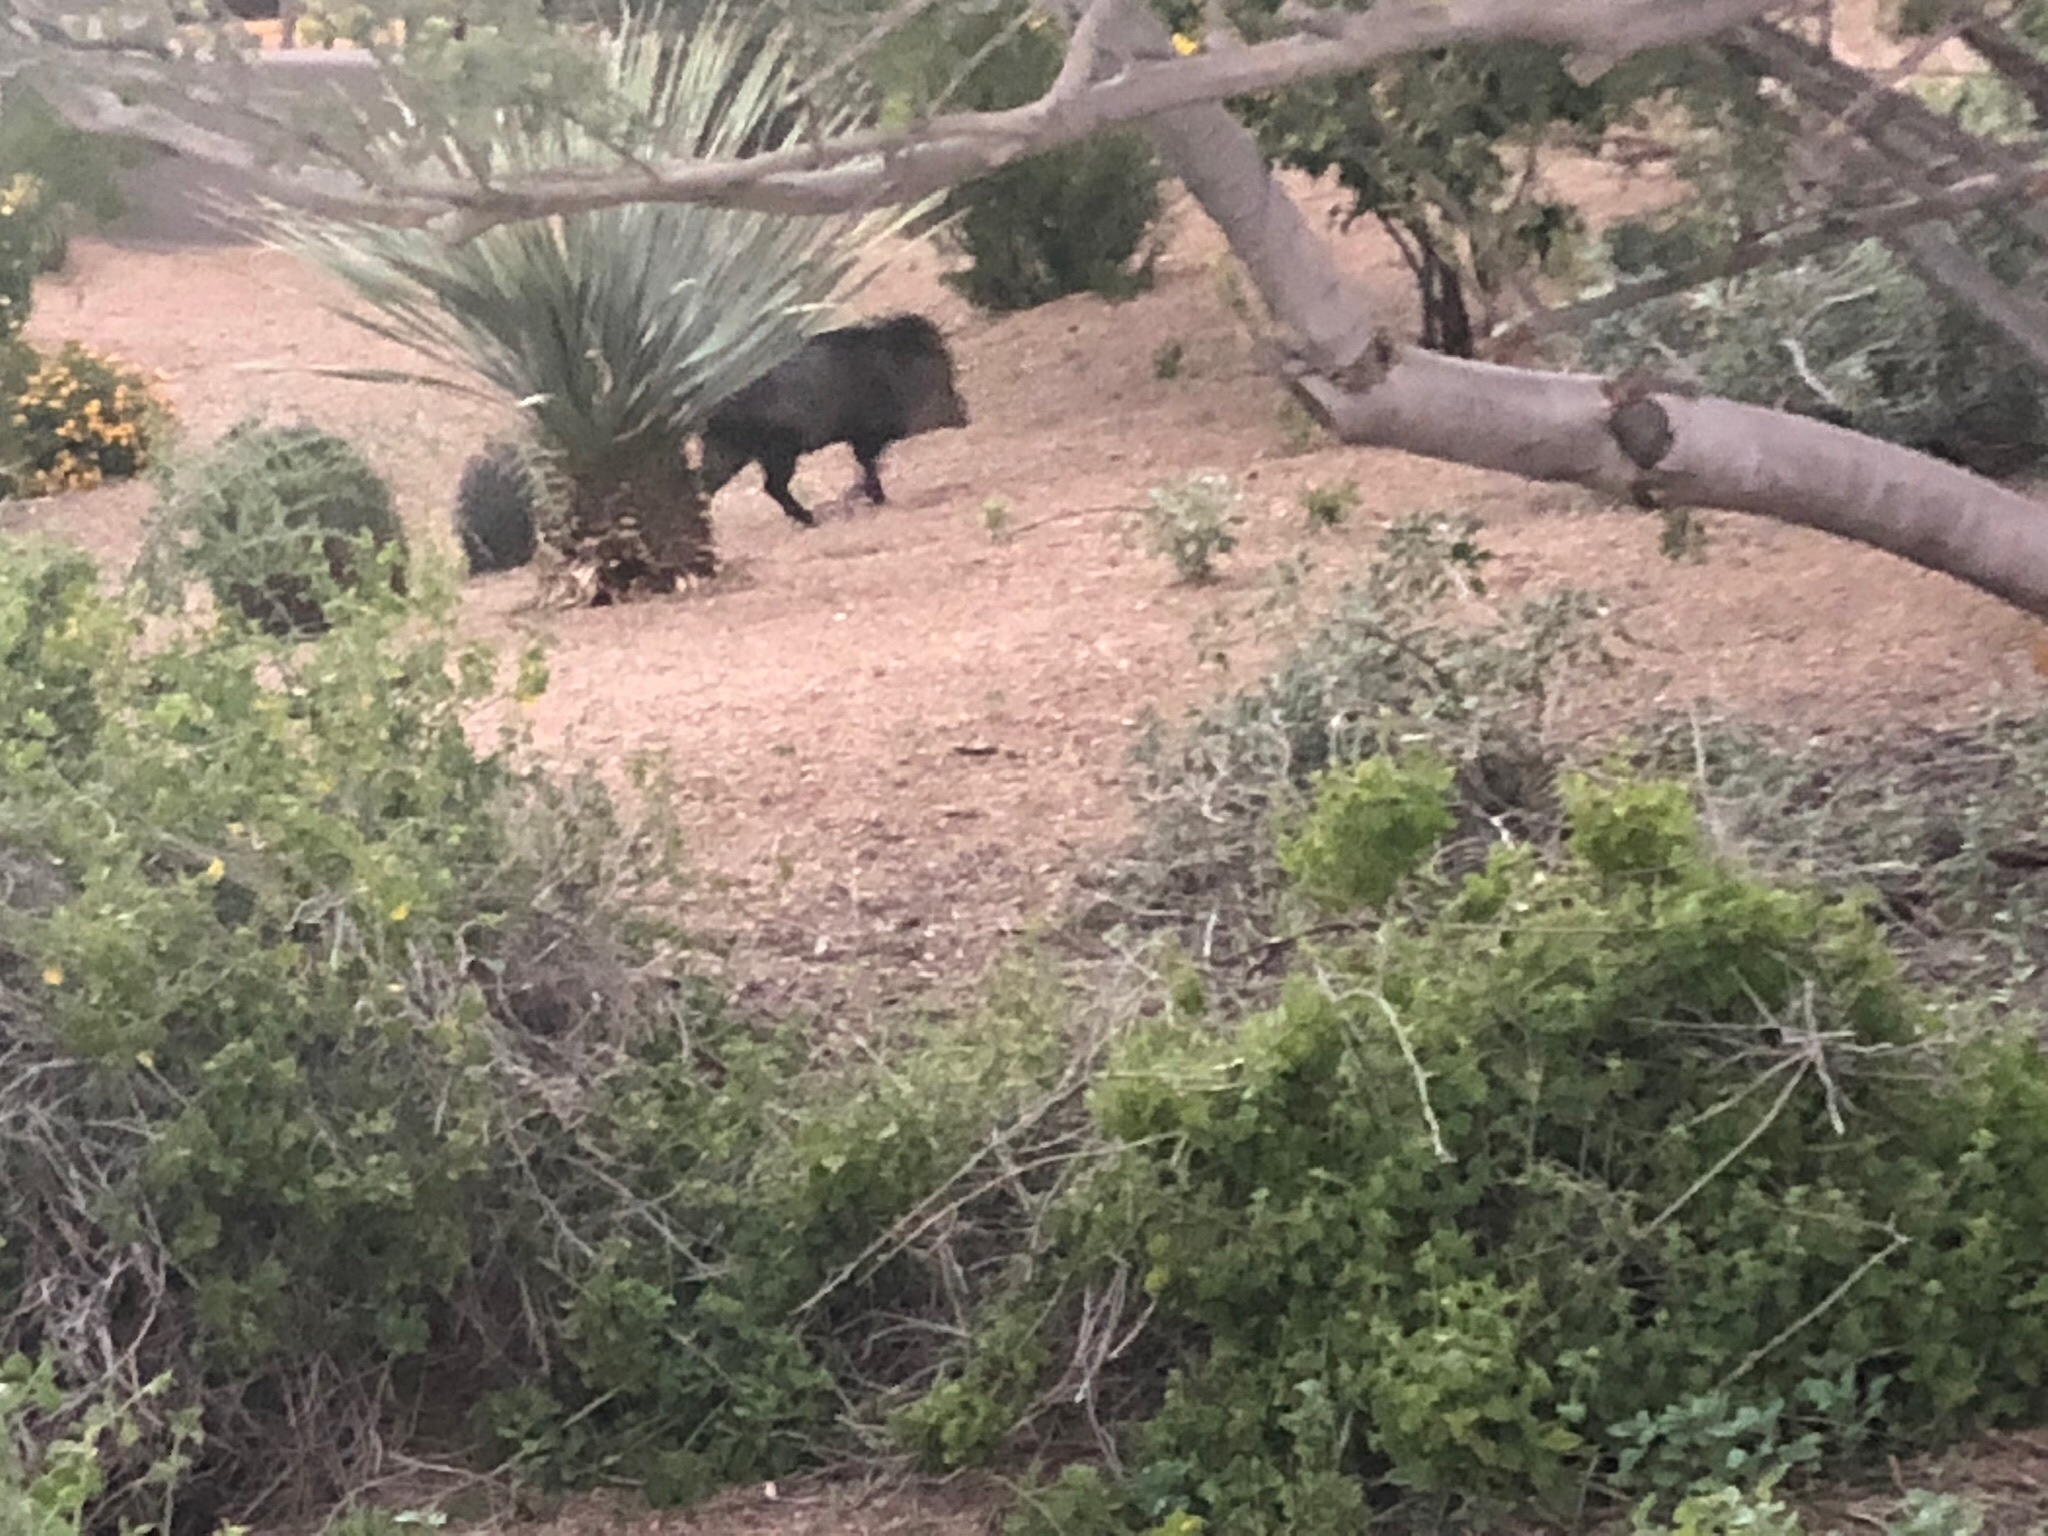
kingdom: Animalia
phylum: Chordata
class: Mammalia
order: Artiodactyla
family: Tayassuidae
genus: Pecari
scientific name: Pecari tajacu
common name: Collared peccary
